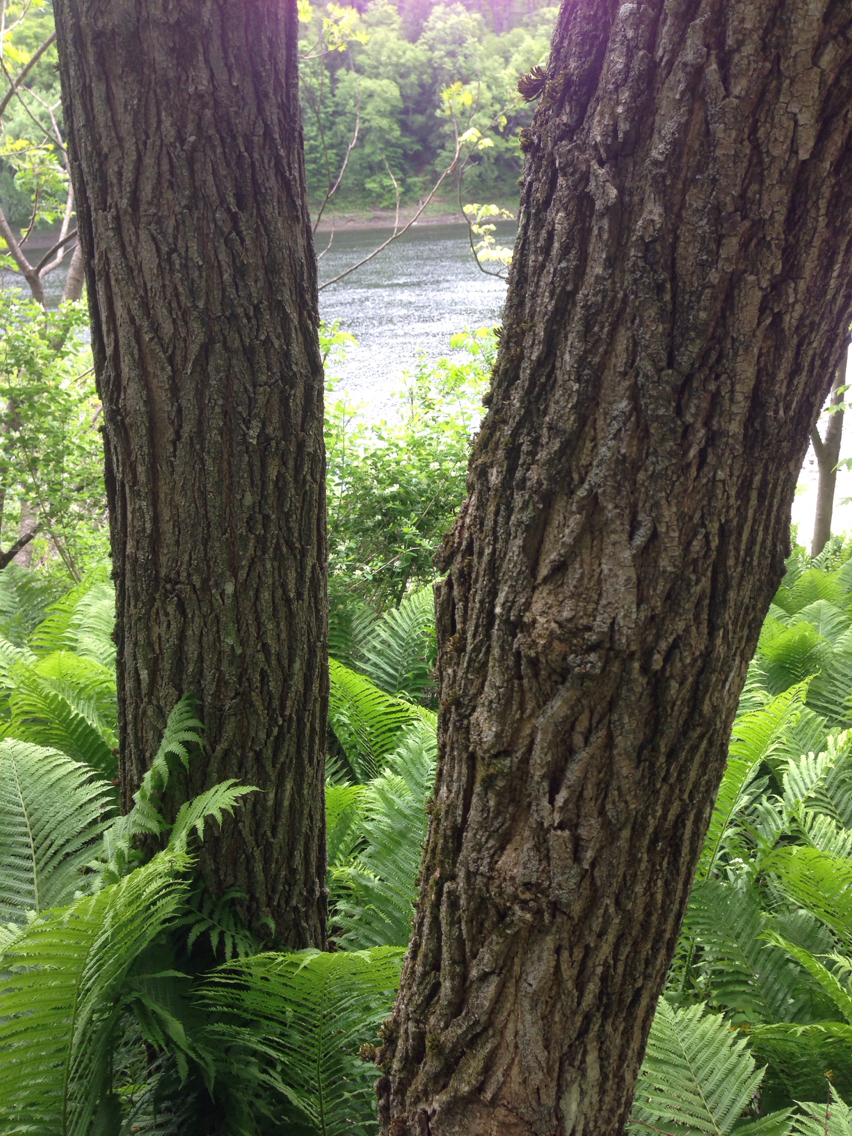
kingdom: Plantae
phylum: Tracheophyta
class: Magnoliopsida
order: Fabales
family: Fabaceae
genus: Robinia
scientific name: Robinia pseudoacacia
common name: Black locust
